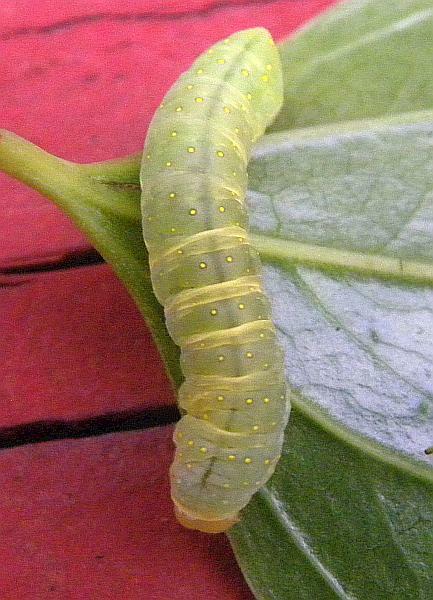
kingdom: Animalia
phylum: Arthropoda
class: Insecta
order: Lepidoptera
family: Noctuidae
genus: Phosphila
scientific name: Phosphila miselioides
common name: Spotted phosphila moth
